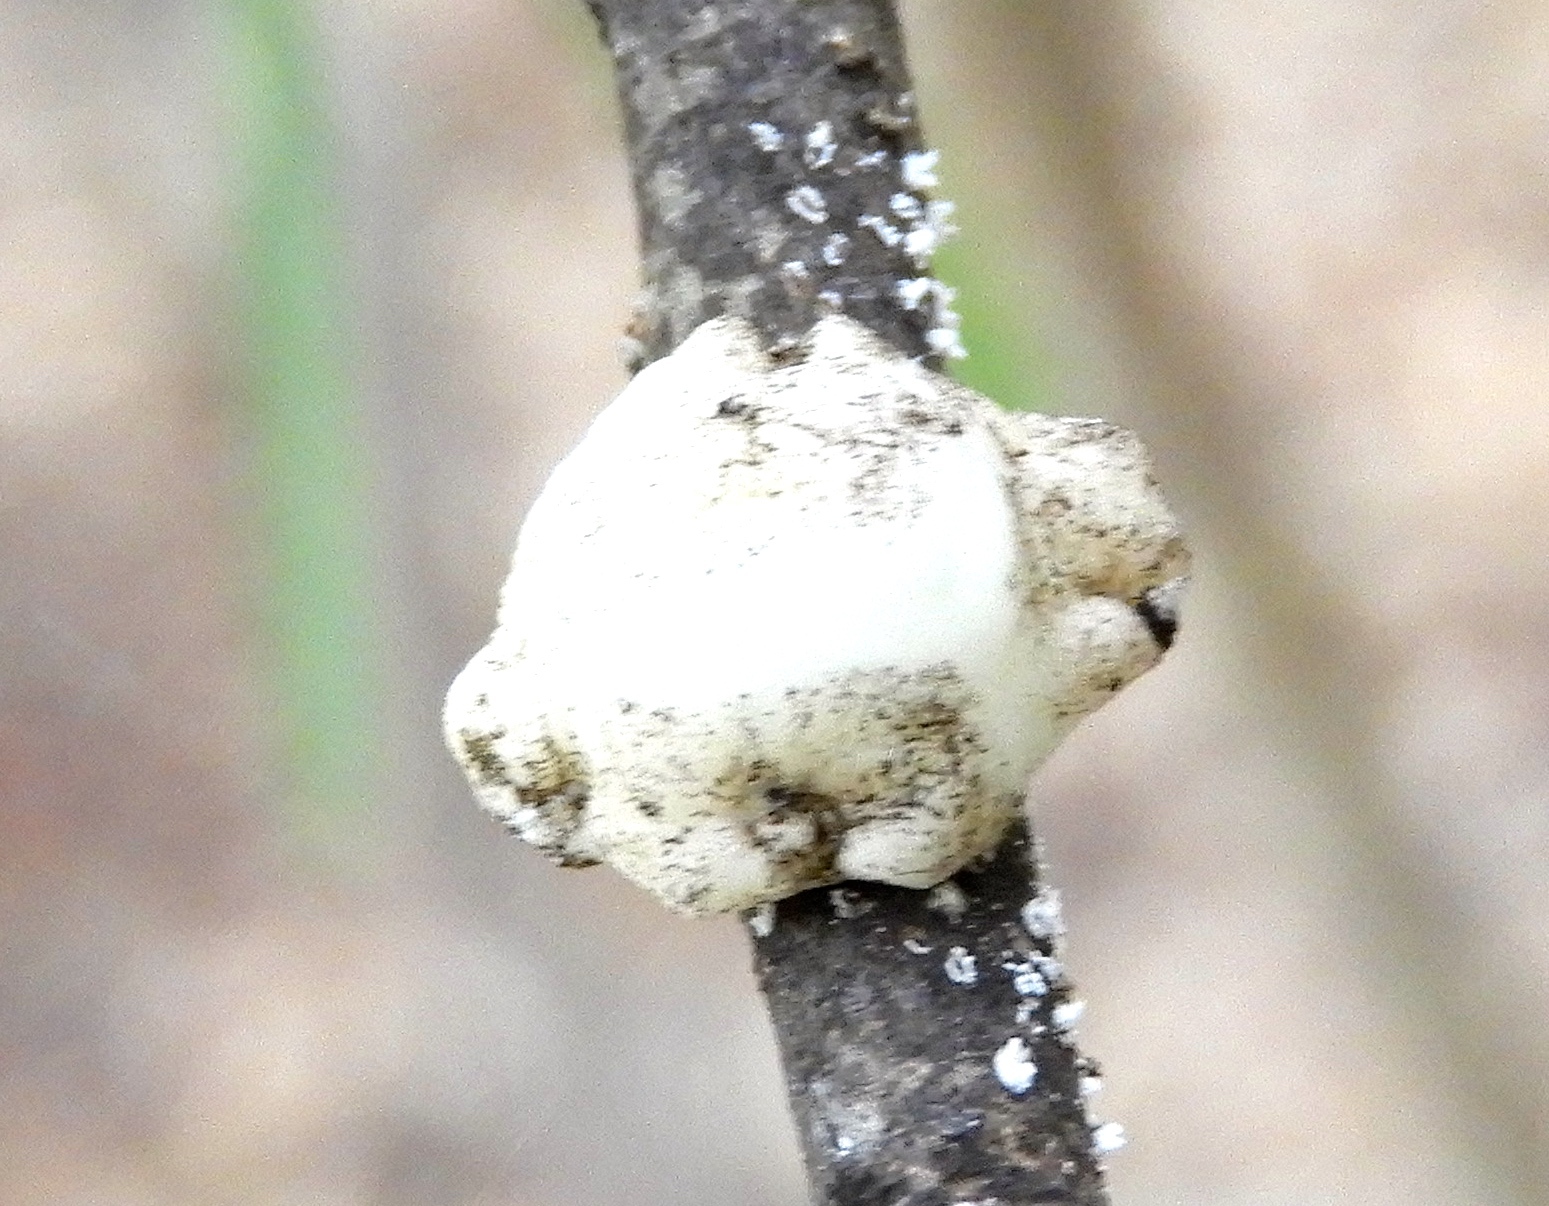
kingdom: Animalia
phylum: Arthropoda
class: Insecta
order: Hemiptera
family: Coccidae
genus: Ceroplastes
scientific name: Ceroplastes
